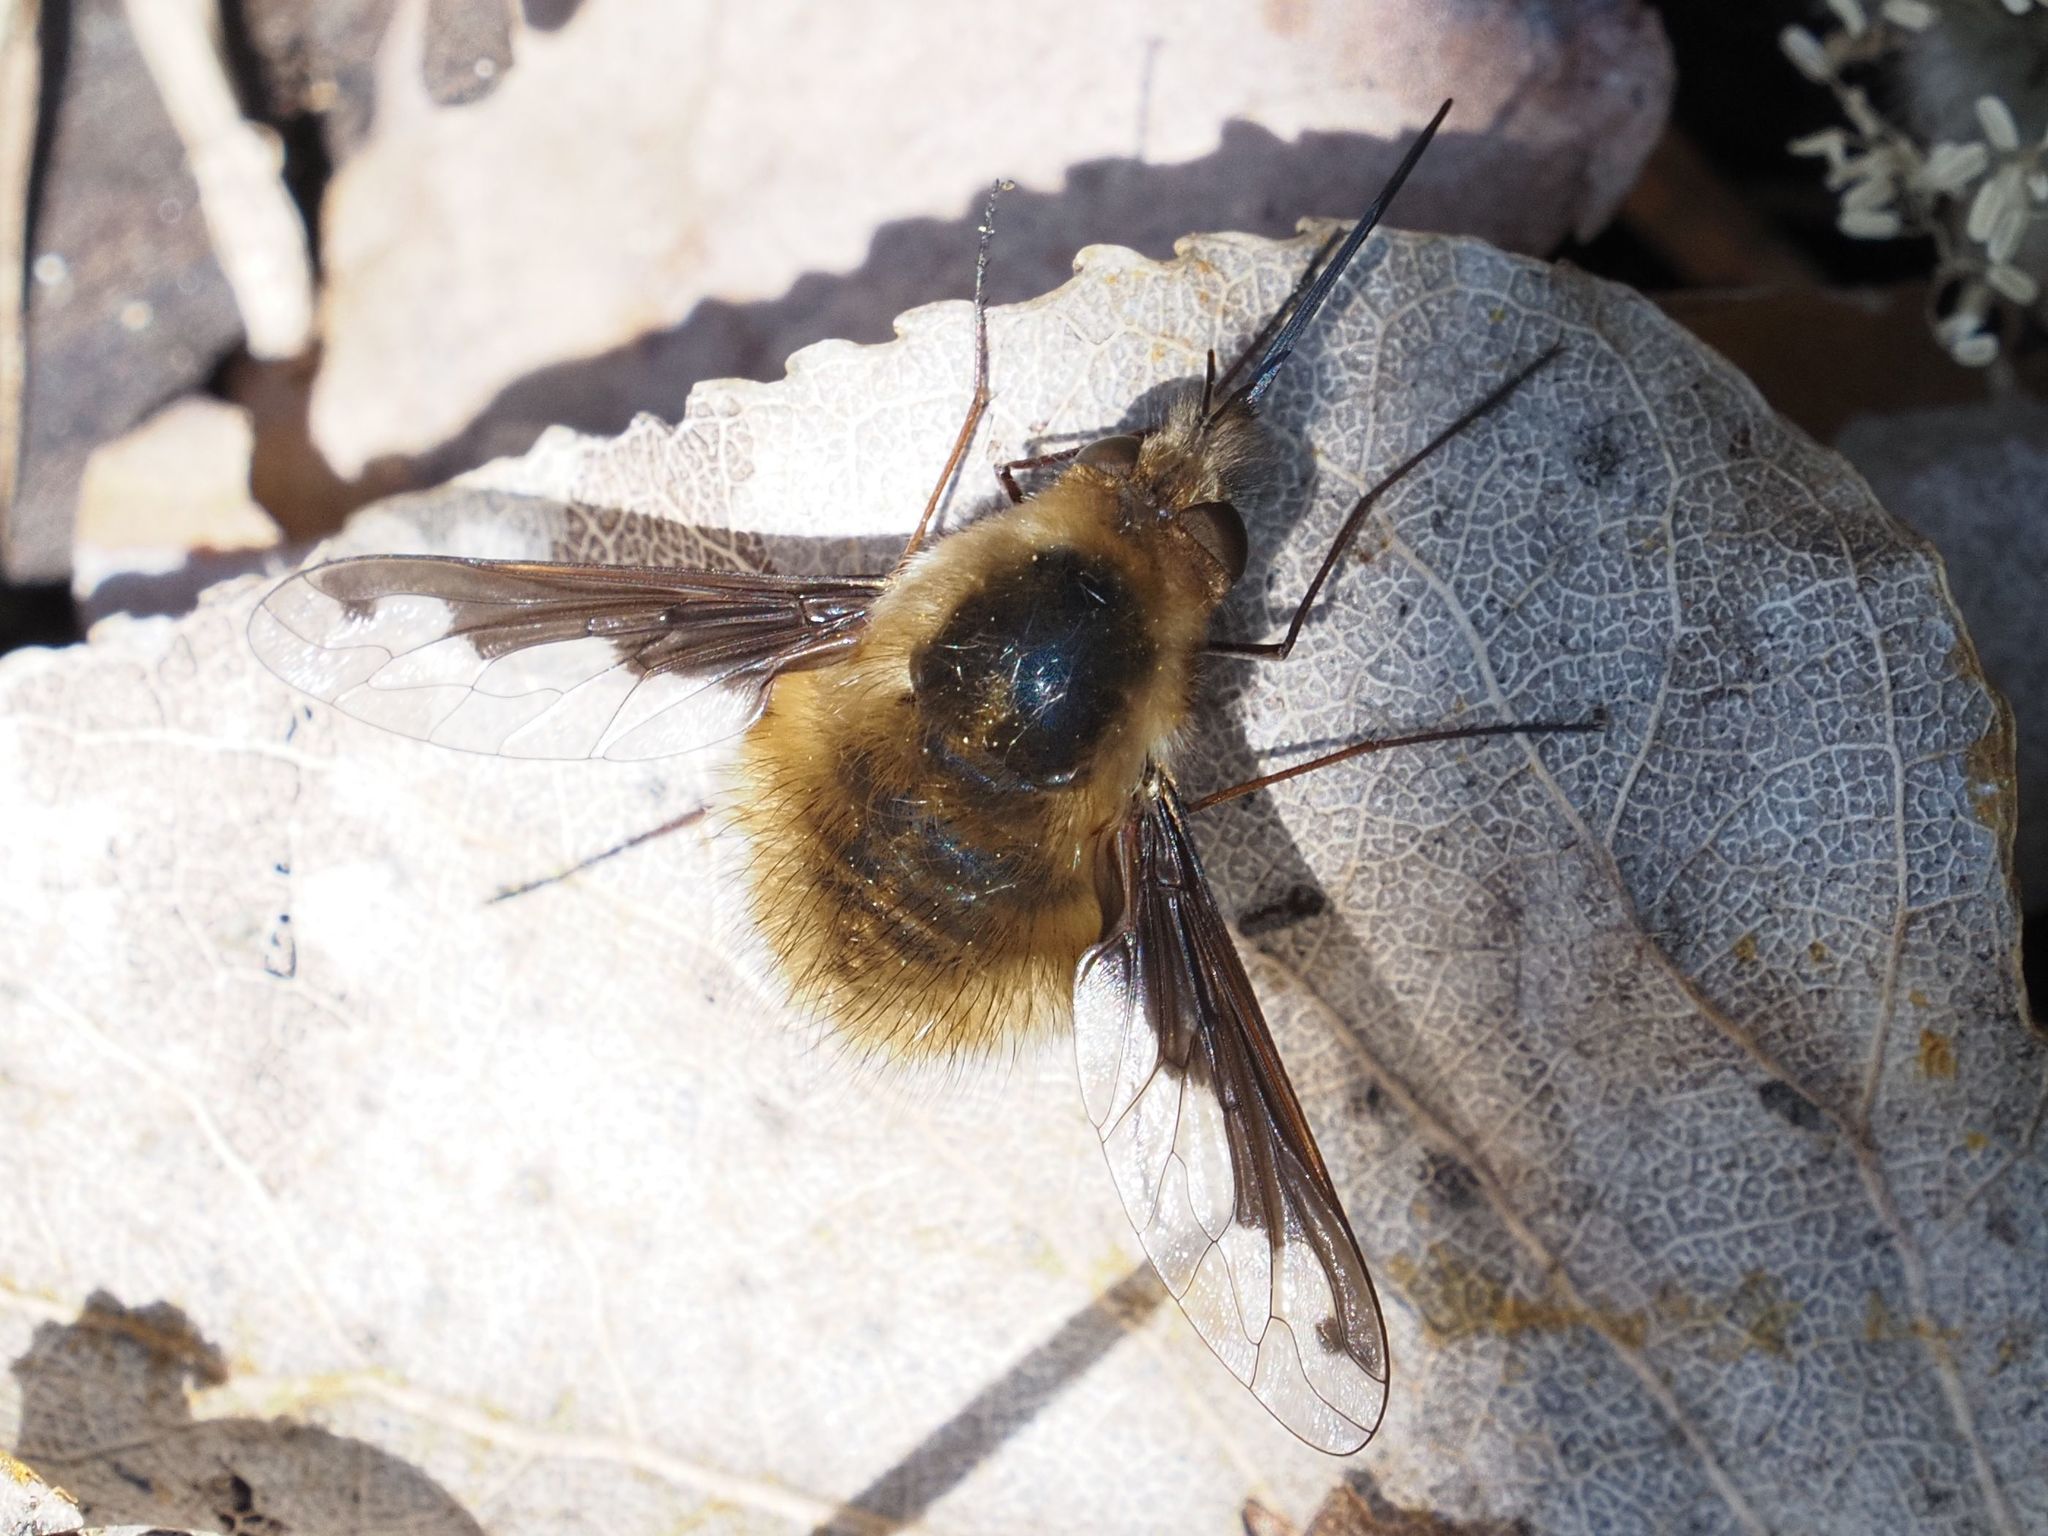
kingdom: Animalia
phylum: Arthropoda
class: Insecta
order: Diptera
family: Bombyliidae
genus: Bombylius
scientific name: Bombylius major
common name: Bee fly
